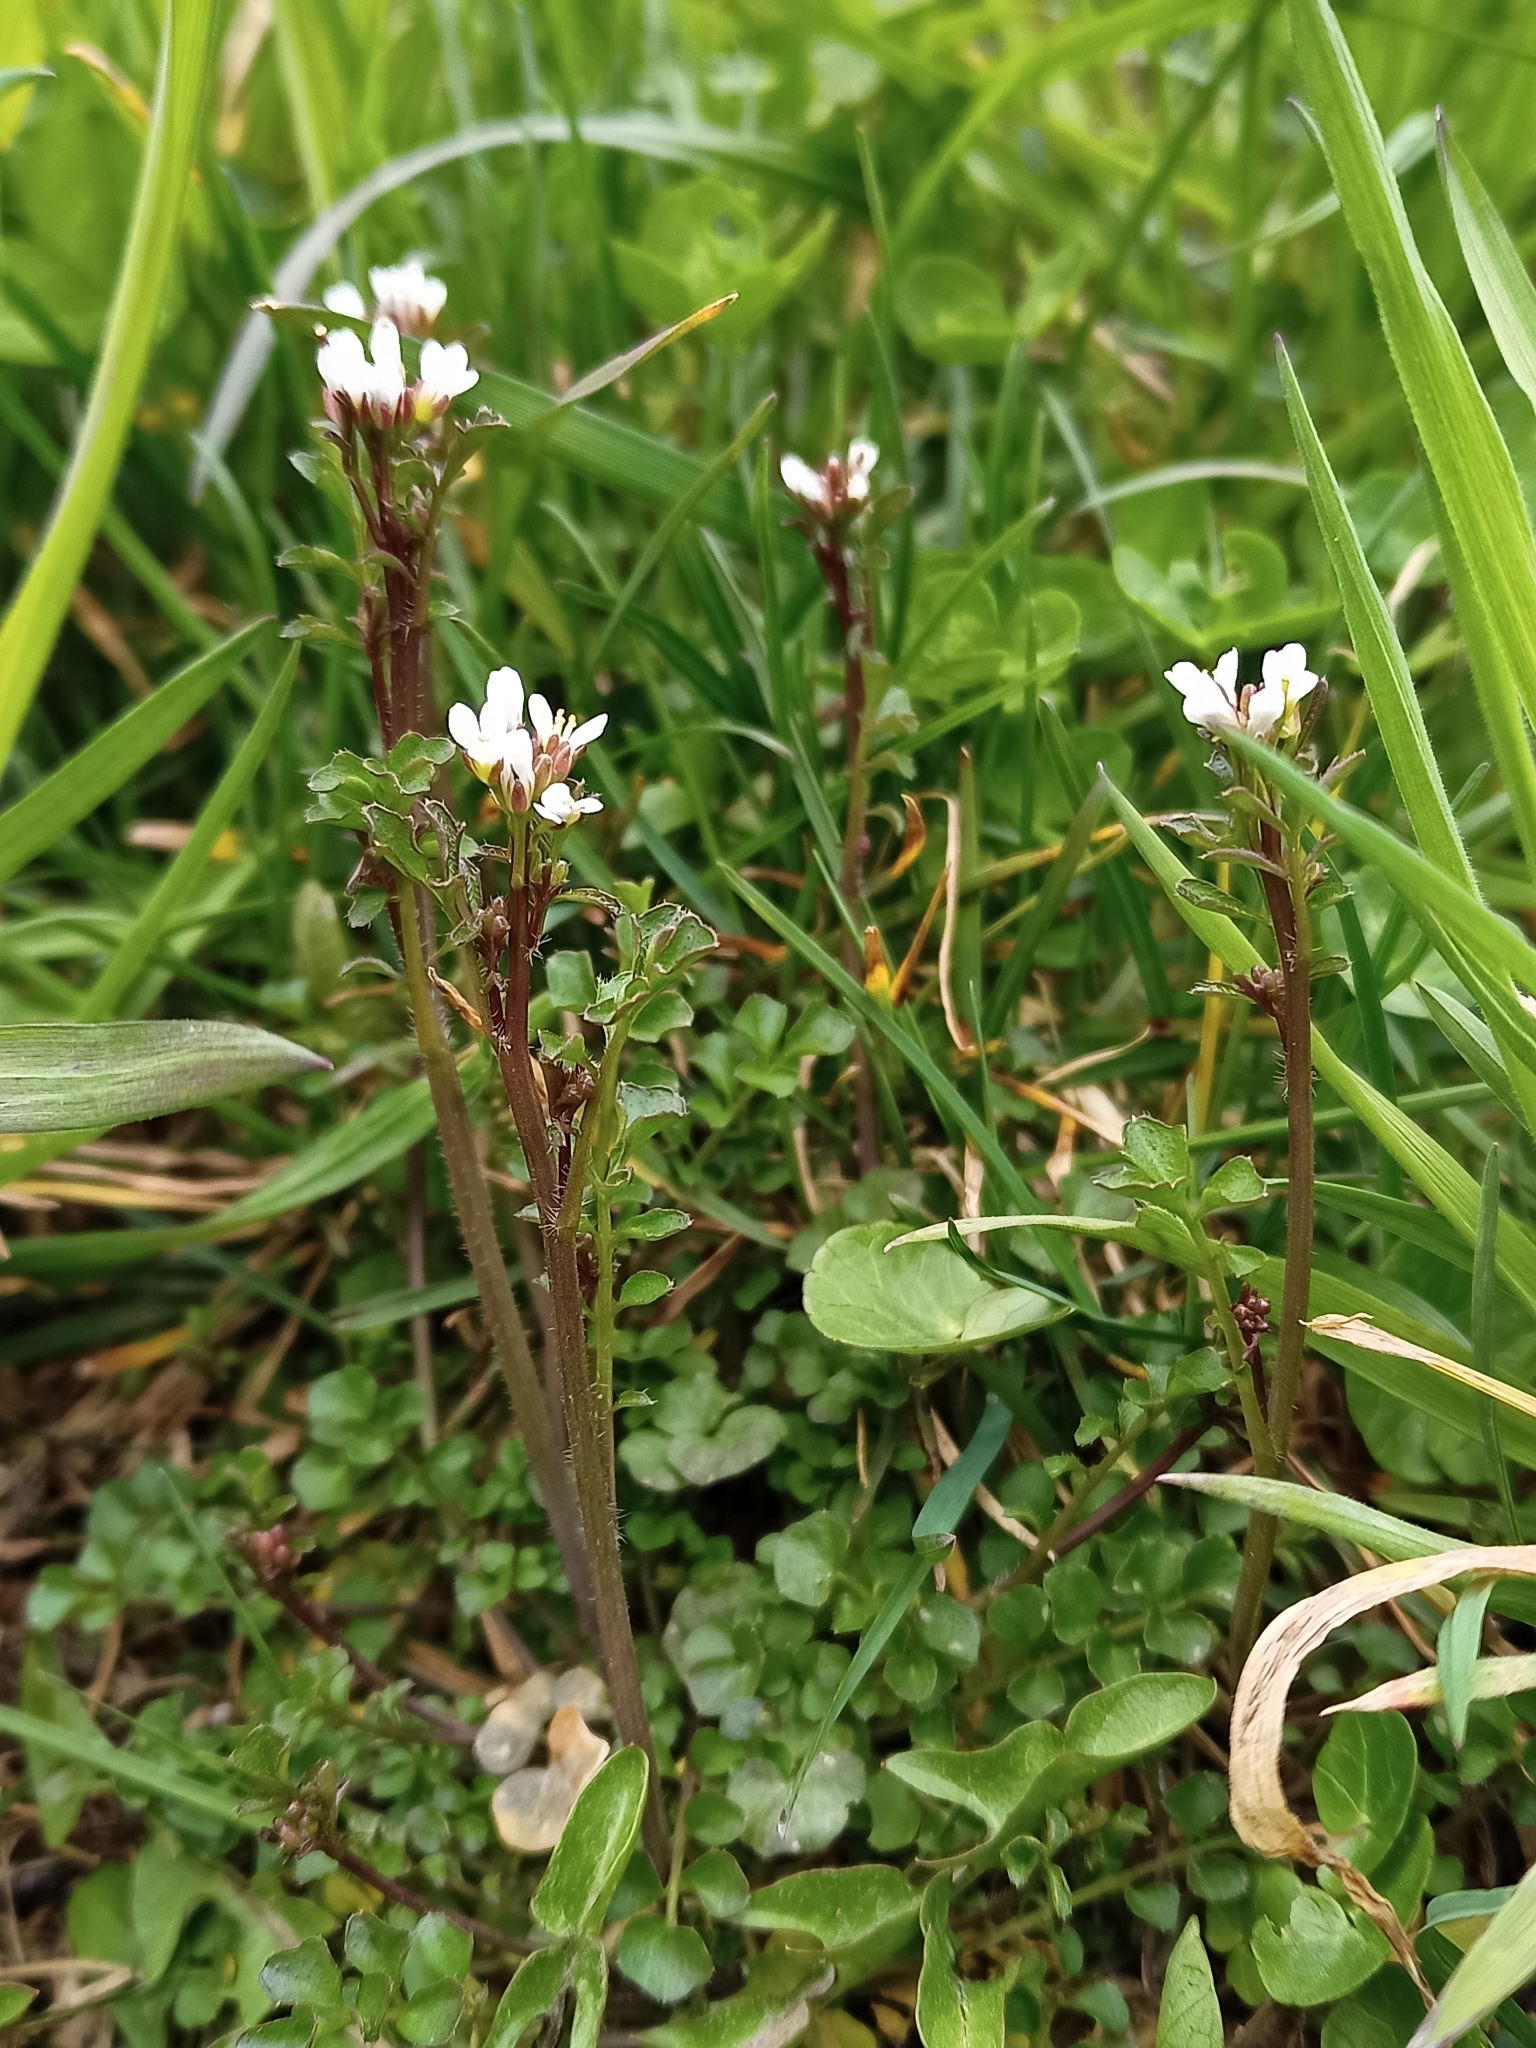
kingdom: Plantae
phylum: Tracheophyta
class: Magnoliopsida
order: Brassicales
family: Brassicaceae
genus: Cardamine
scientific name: Cardamine hirsuta
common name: Hairy bittercress
